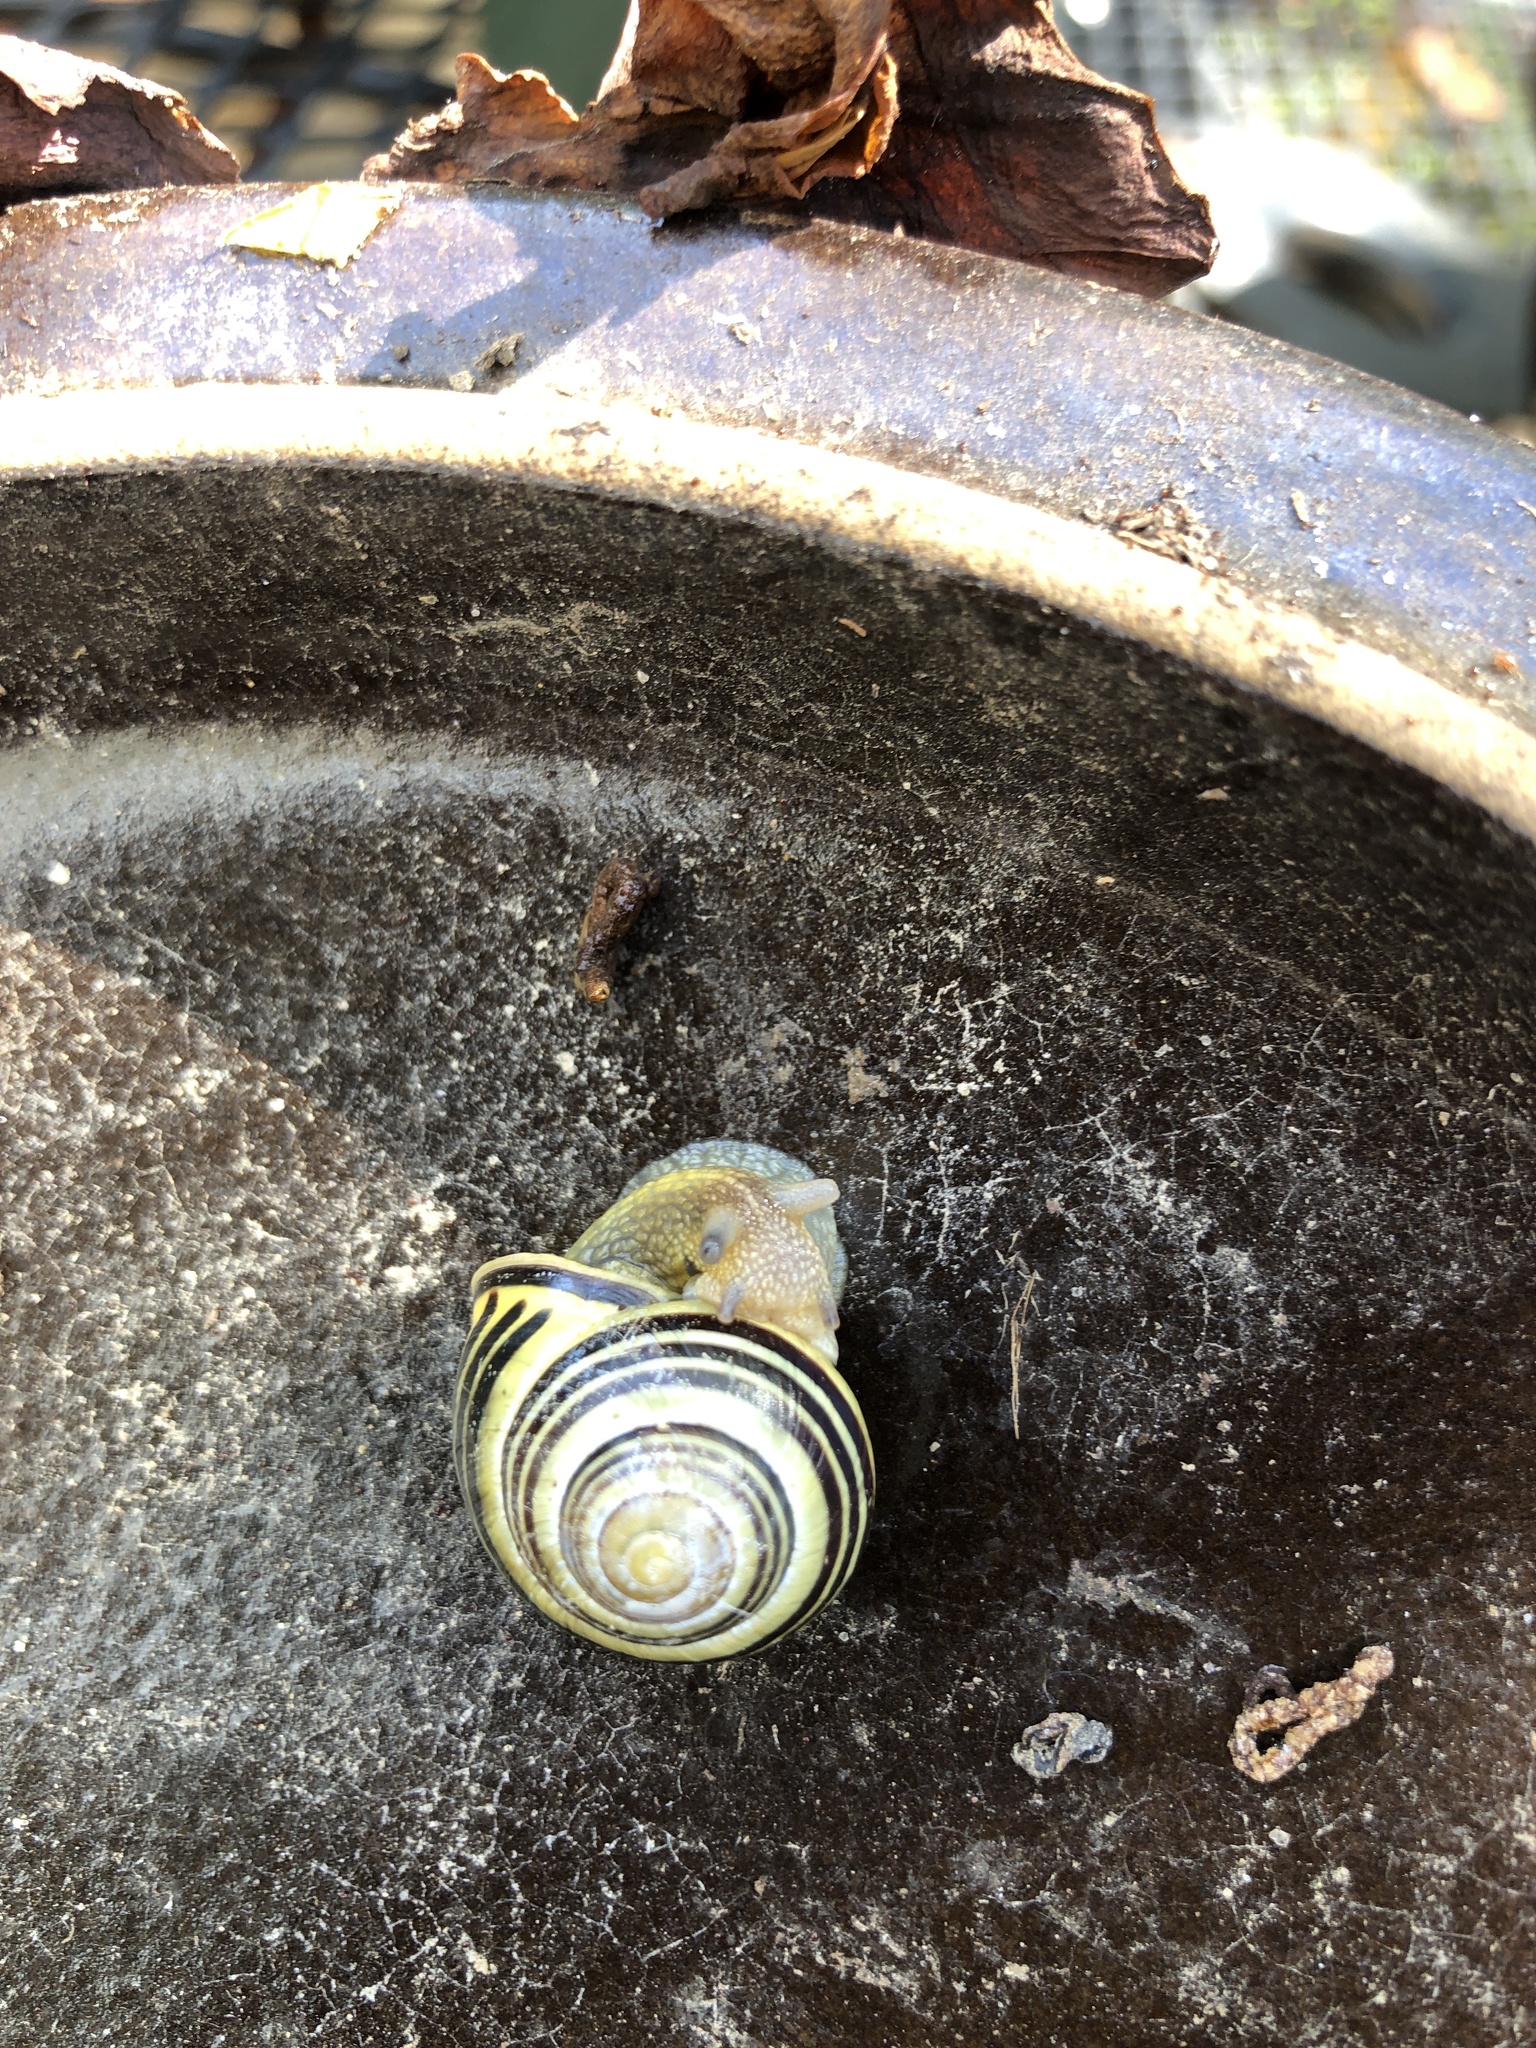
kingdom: Animalia
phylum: Mollusca
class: Gastropoda
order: Stylommatophora
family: Helicidae
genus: Cepaea
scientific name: Cepaea nemoralis
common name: Grovesnail
